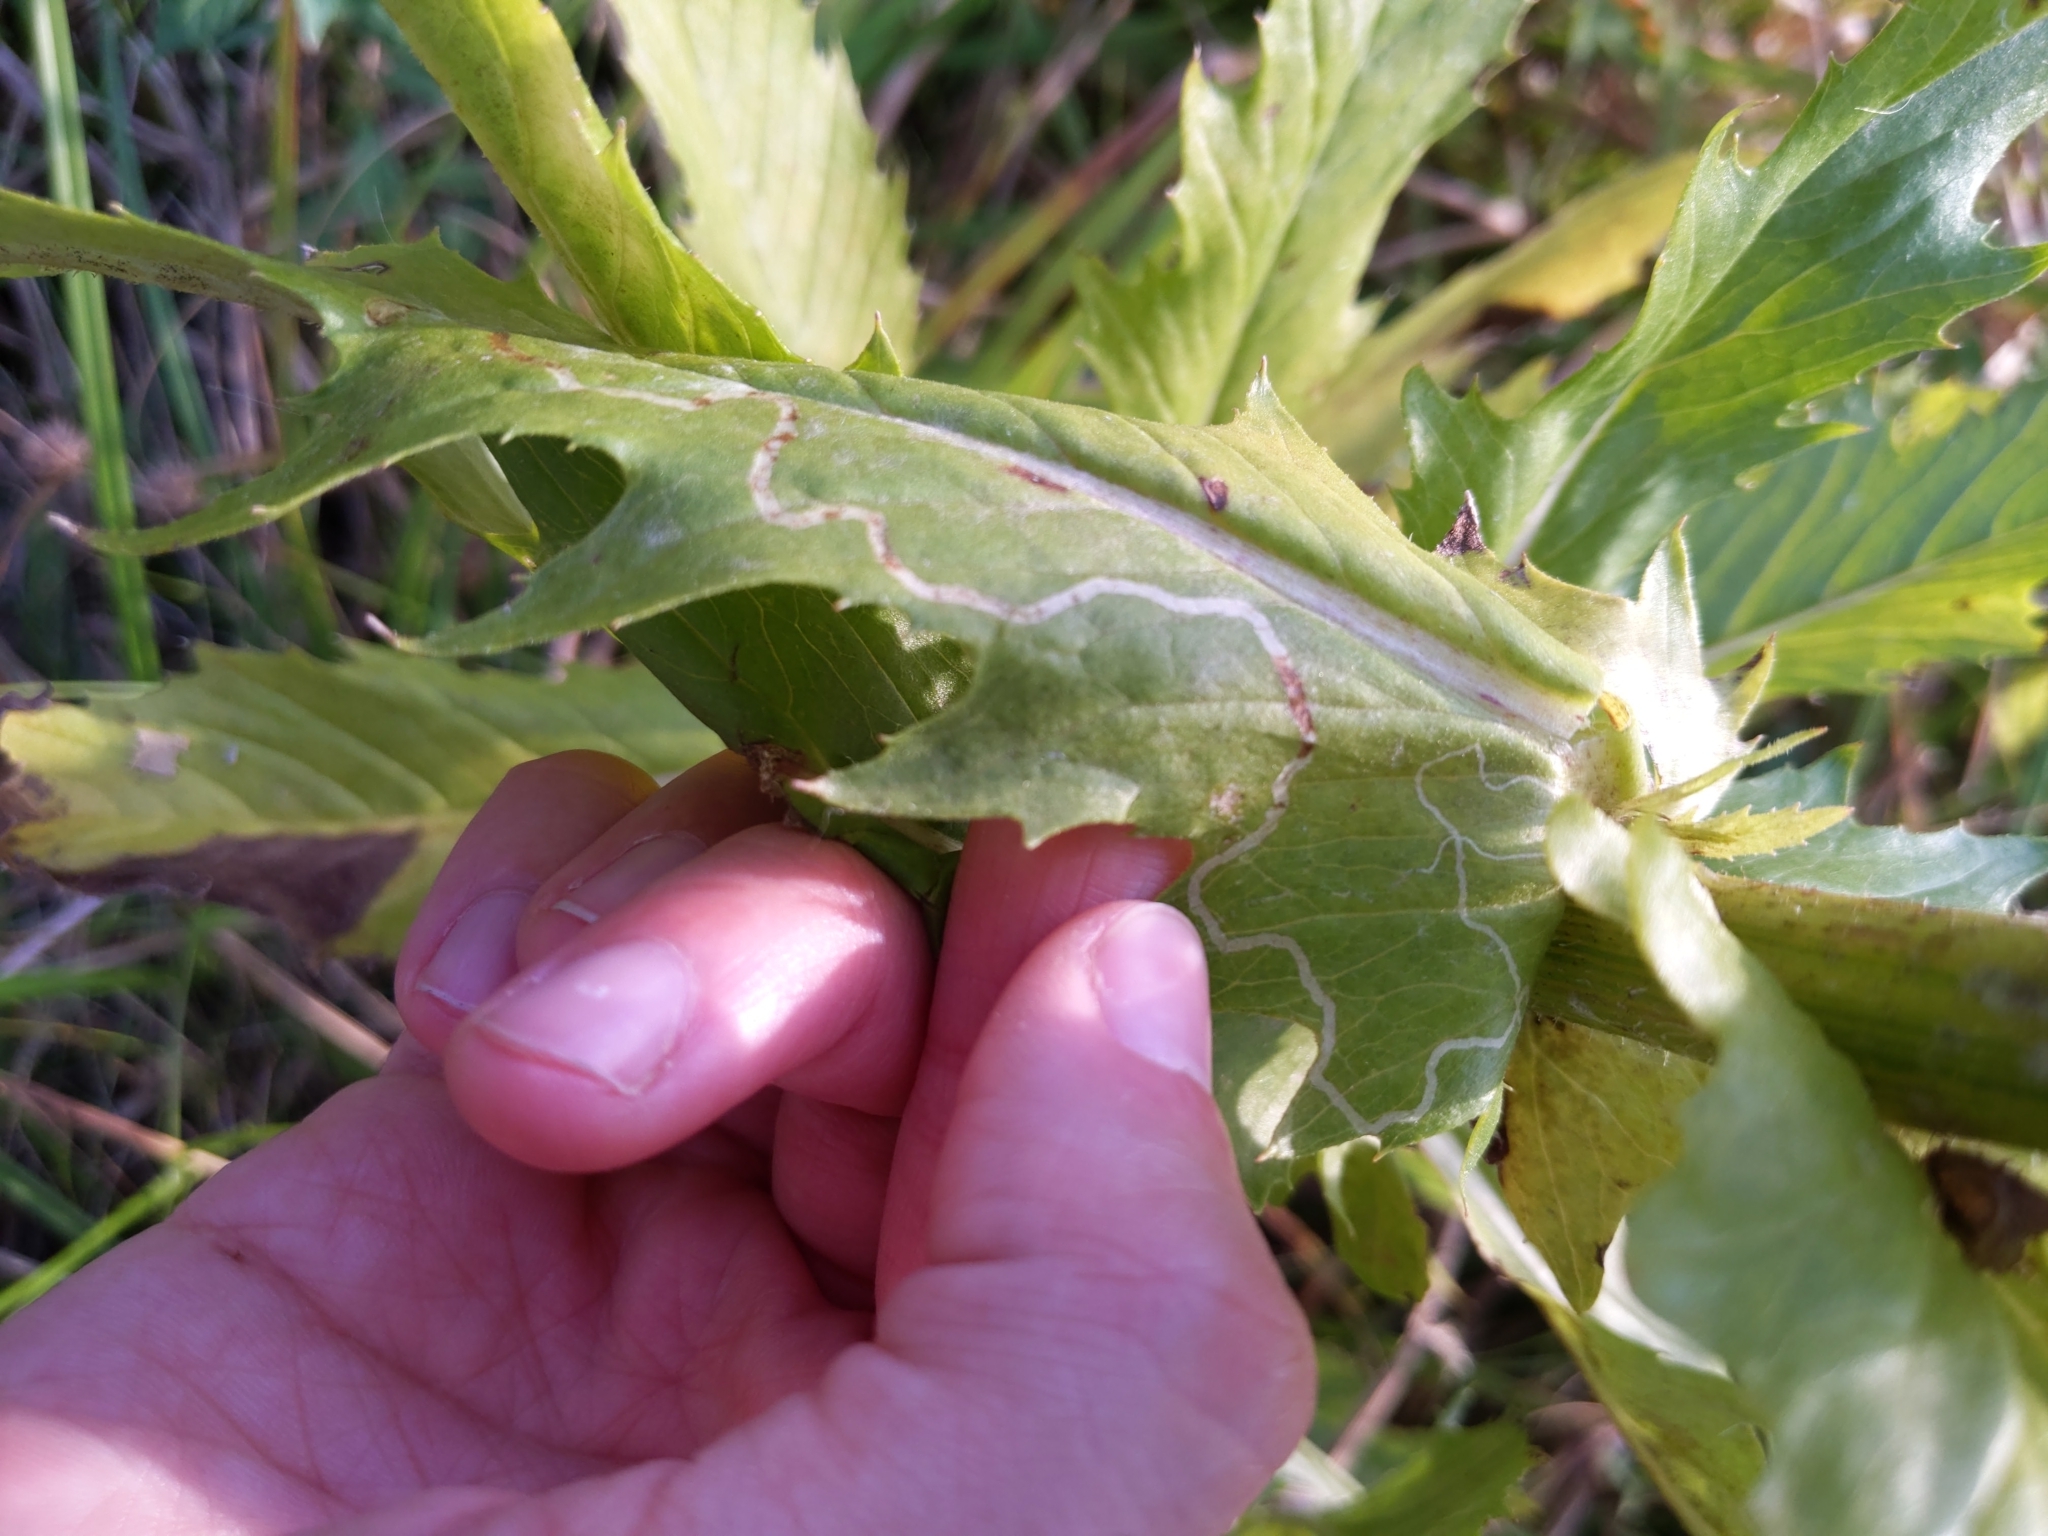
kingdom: Animalia
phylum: Arthropoda
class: Insecta
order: Lepidoptera
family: Gracillariidae
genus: Phyllocnistis
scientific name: Phyllocnistis insignis
